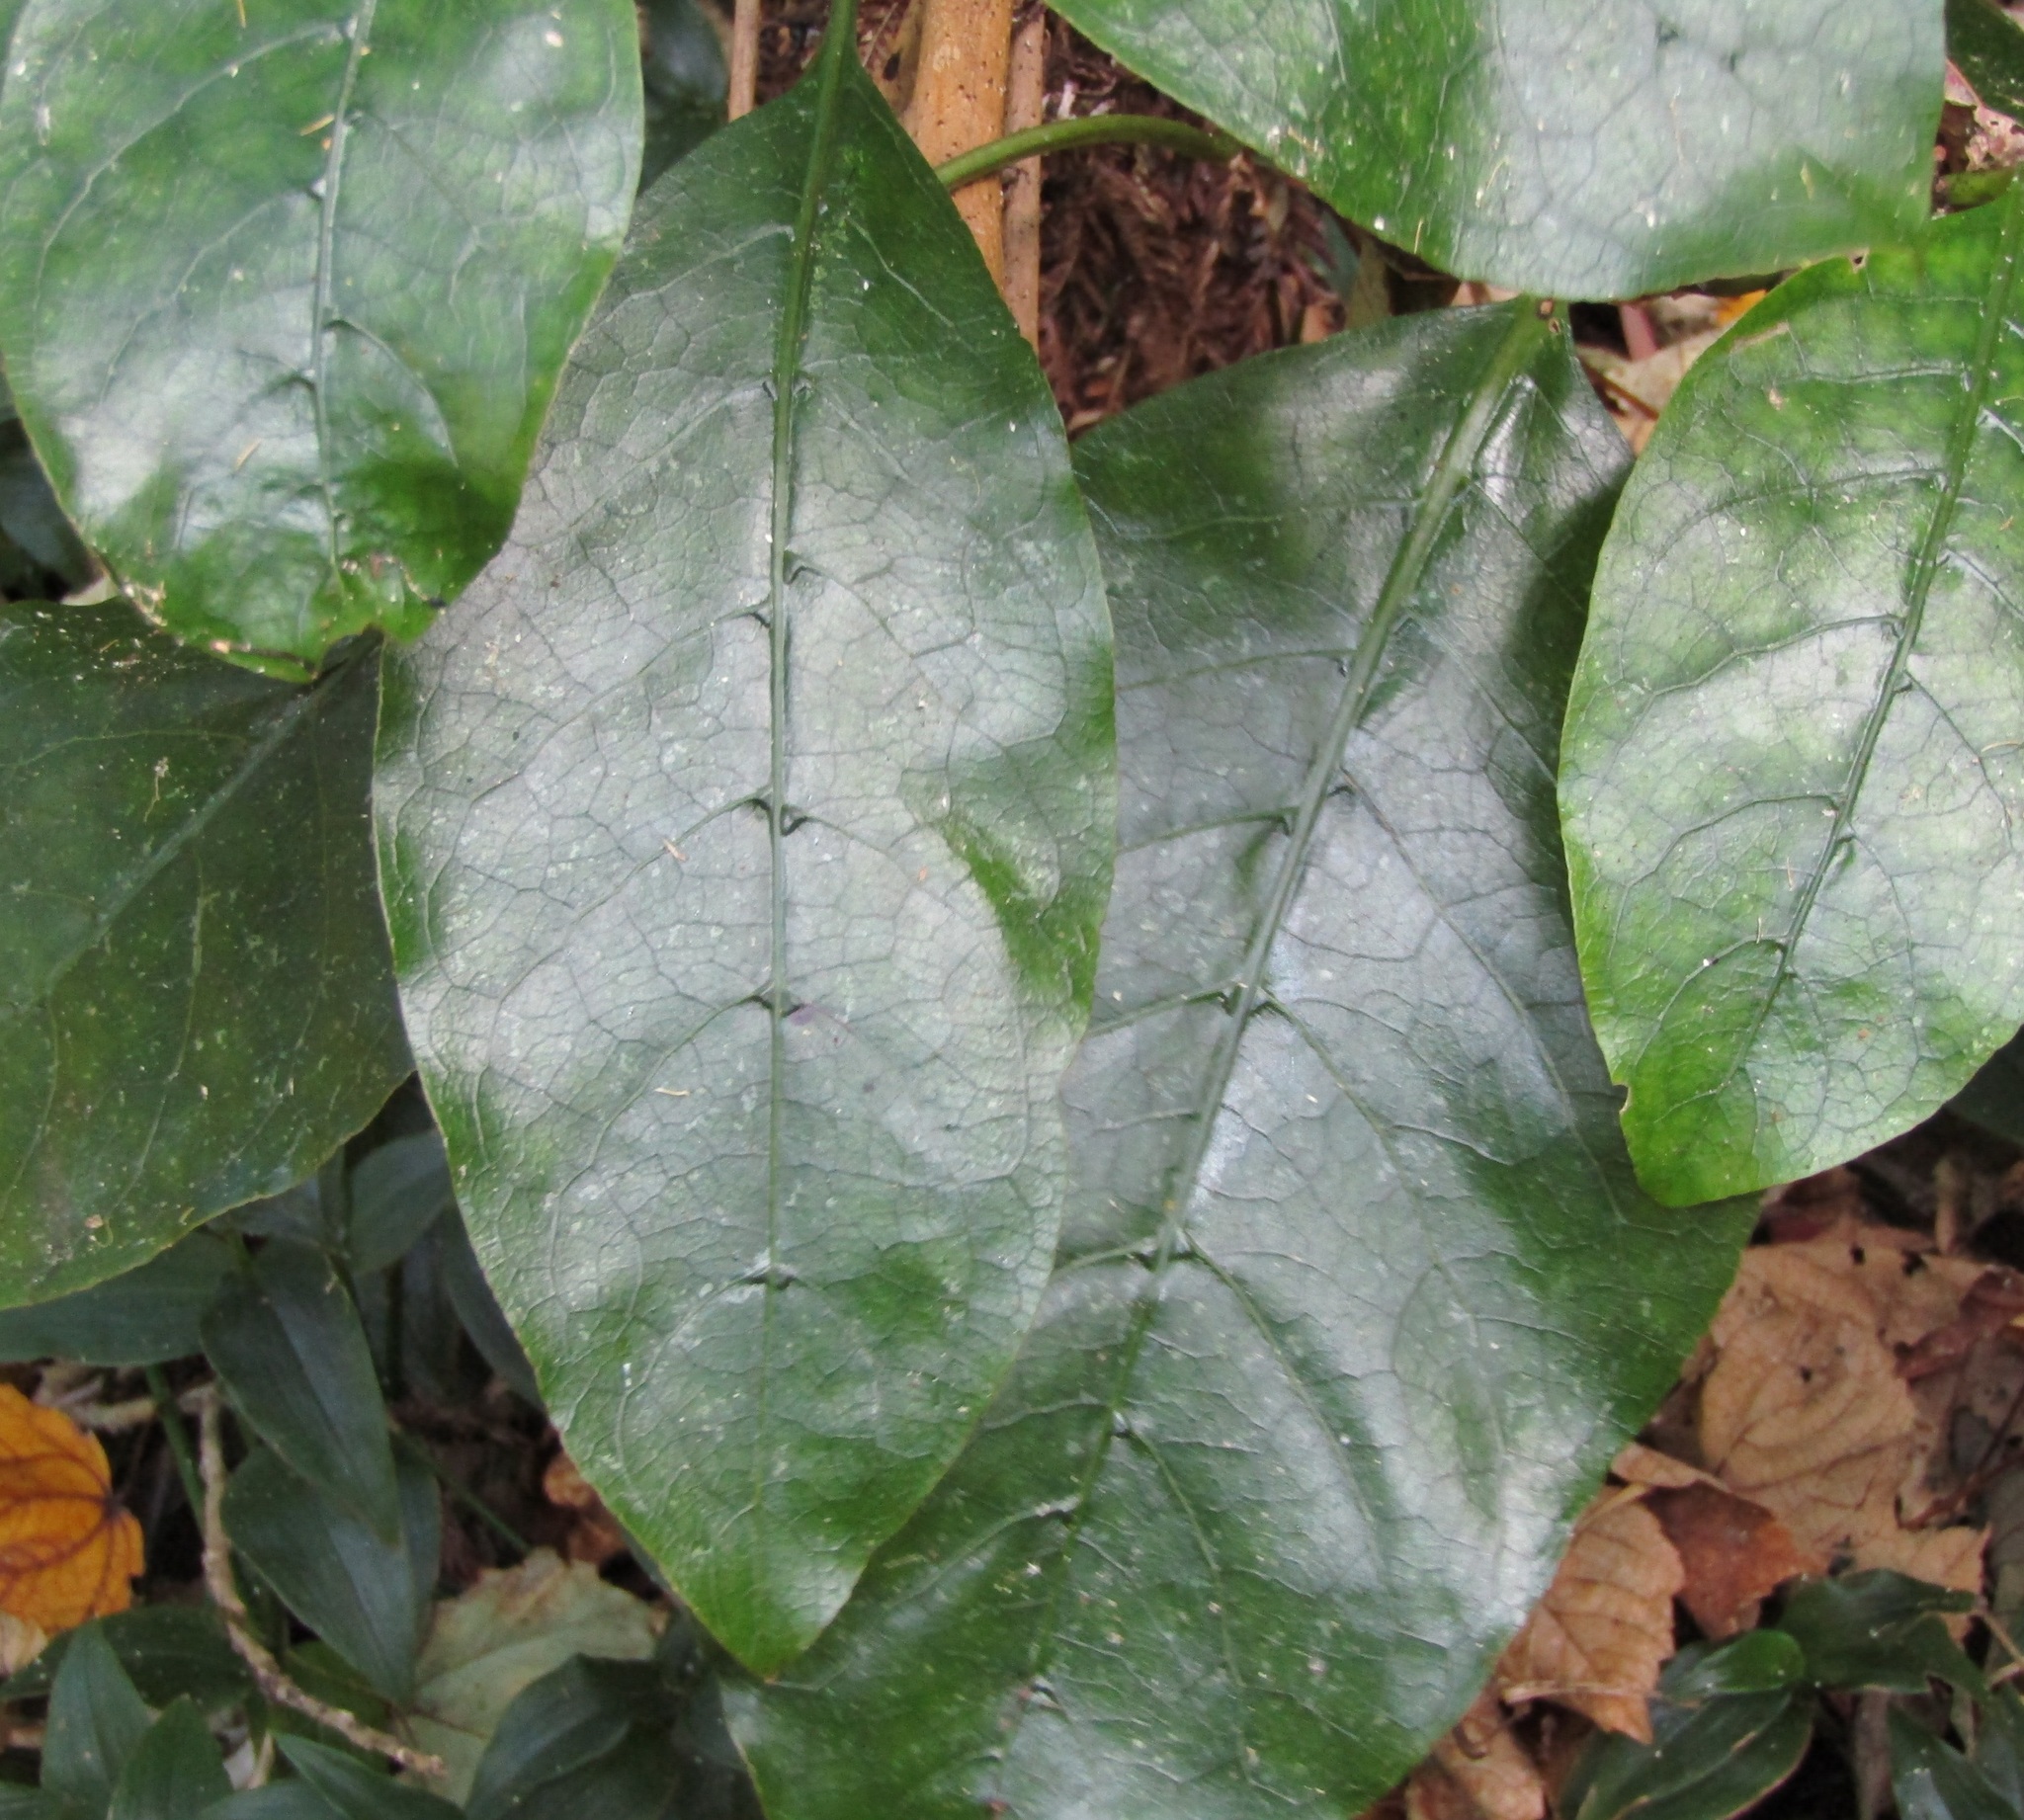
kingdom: Plantae
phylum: Tracheophyta
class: Magnoliopsida
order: Gentianales
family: Rubiaceae
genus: Coprosma
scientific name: Coprosma autumnalis
